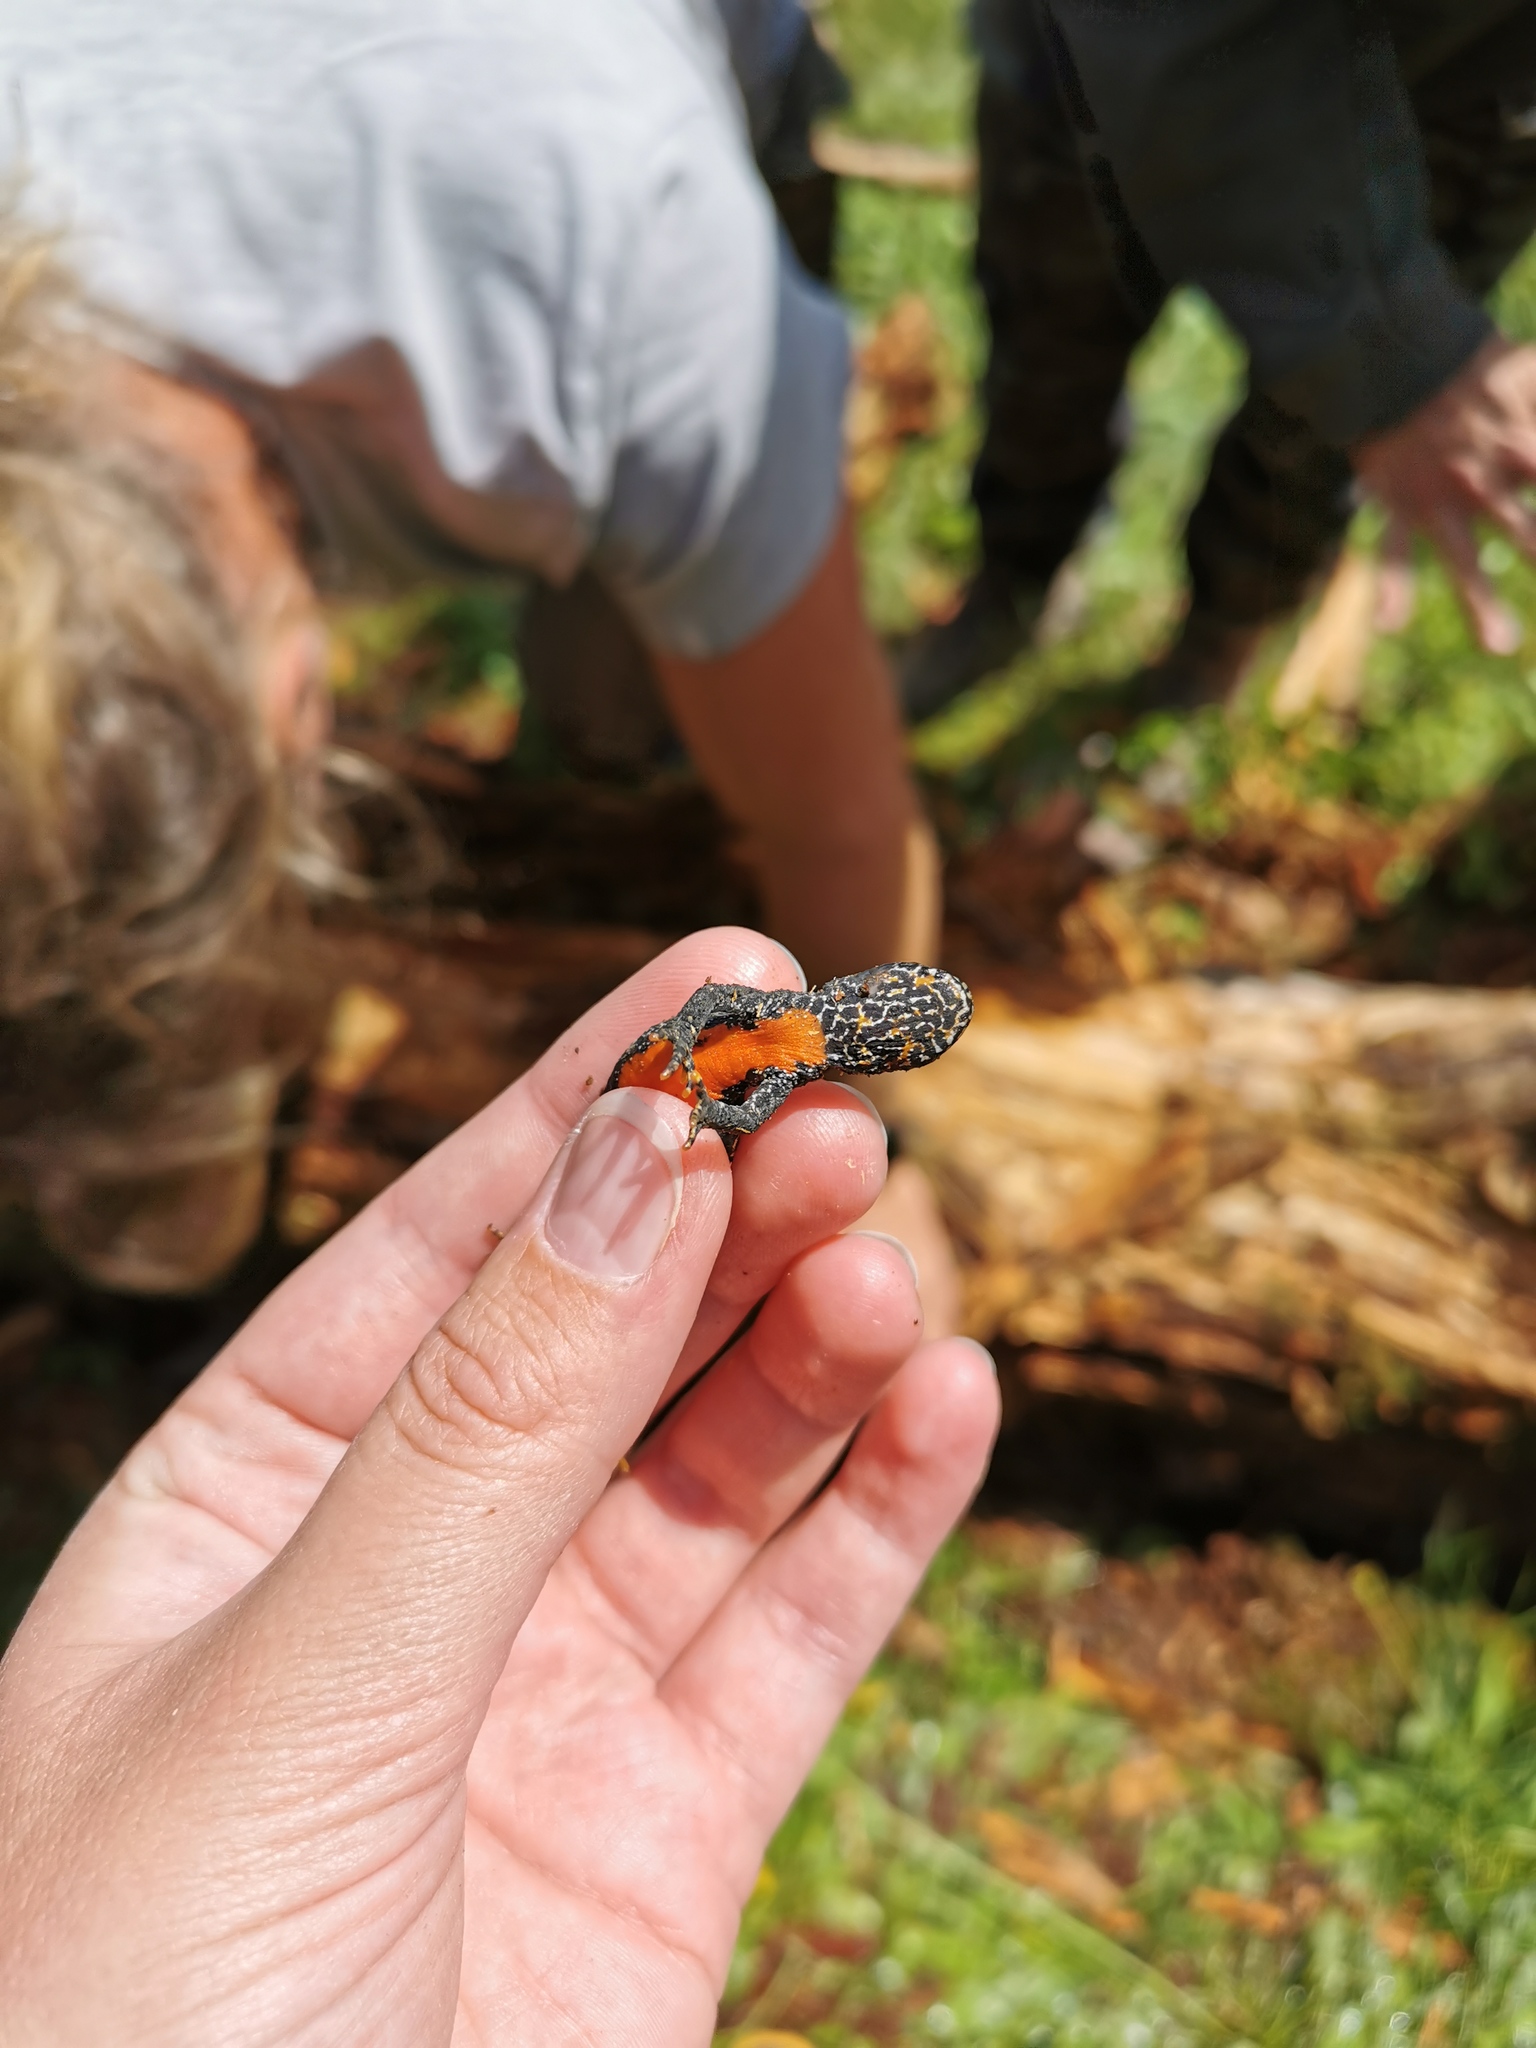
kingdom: Animalia
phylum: Chordata
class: Amphibia
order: Caudata
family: Salamandridae
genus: Ichthyosaura
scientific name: Ichthyosaura alpestris
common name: Alpine newt
